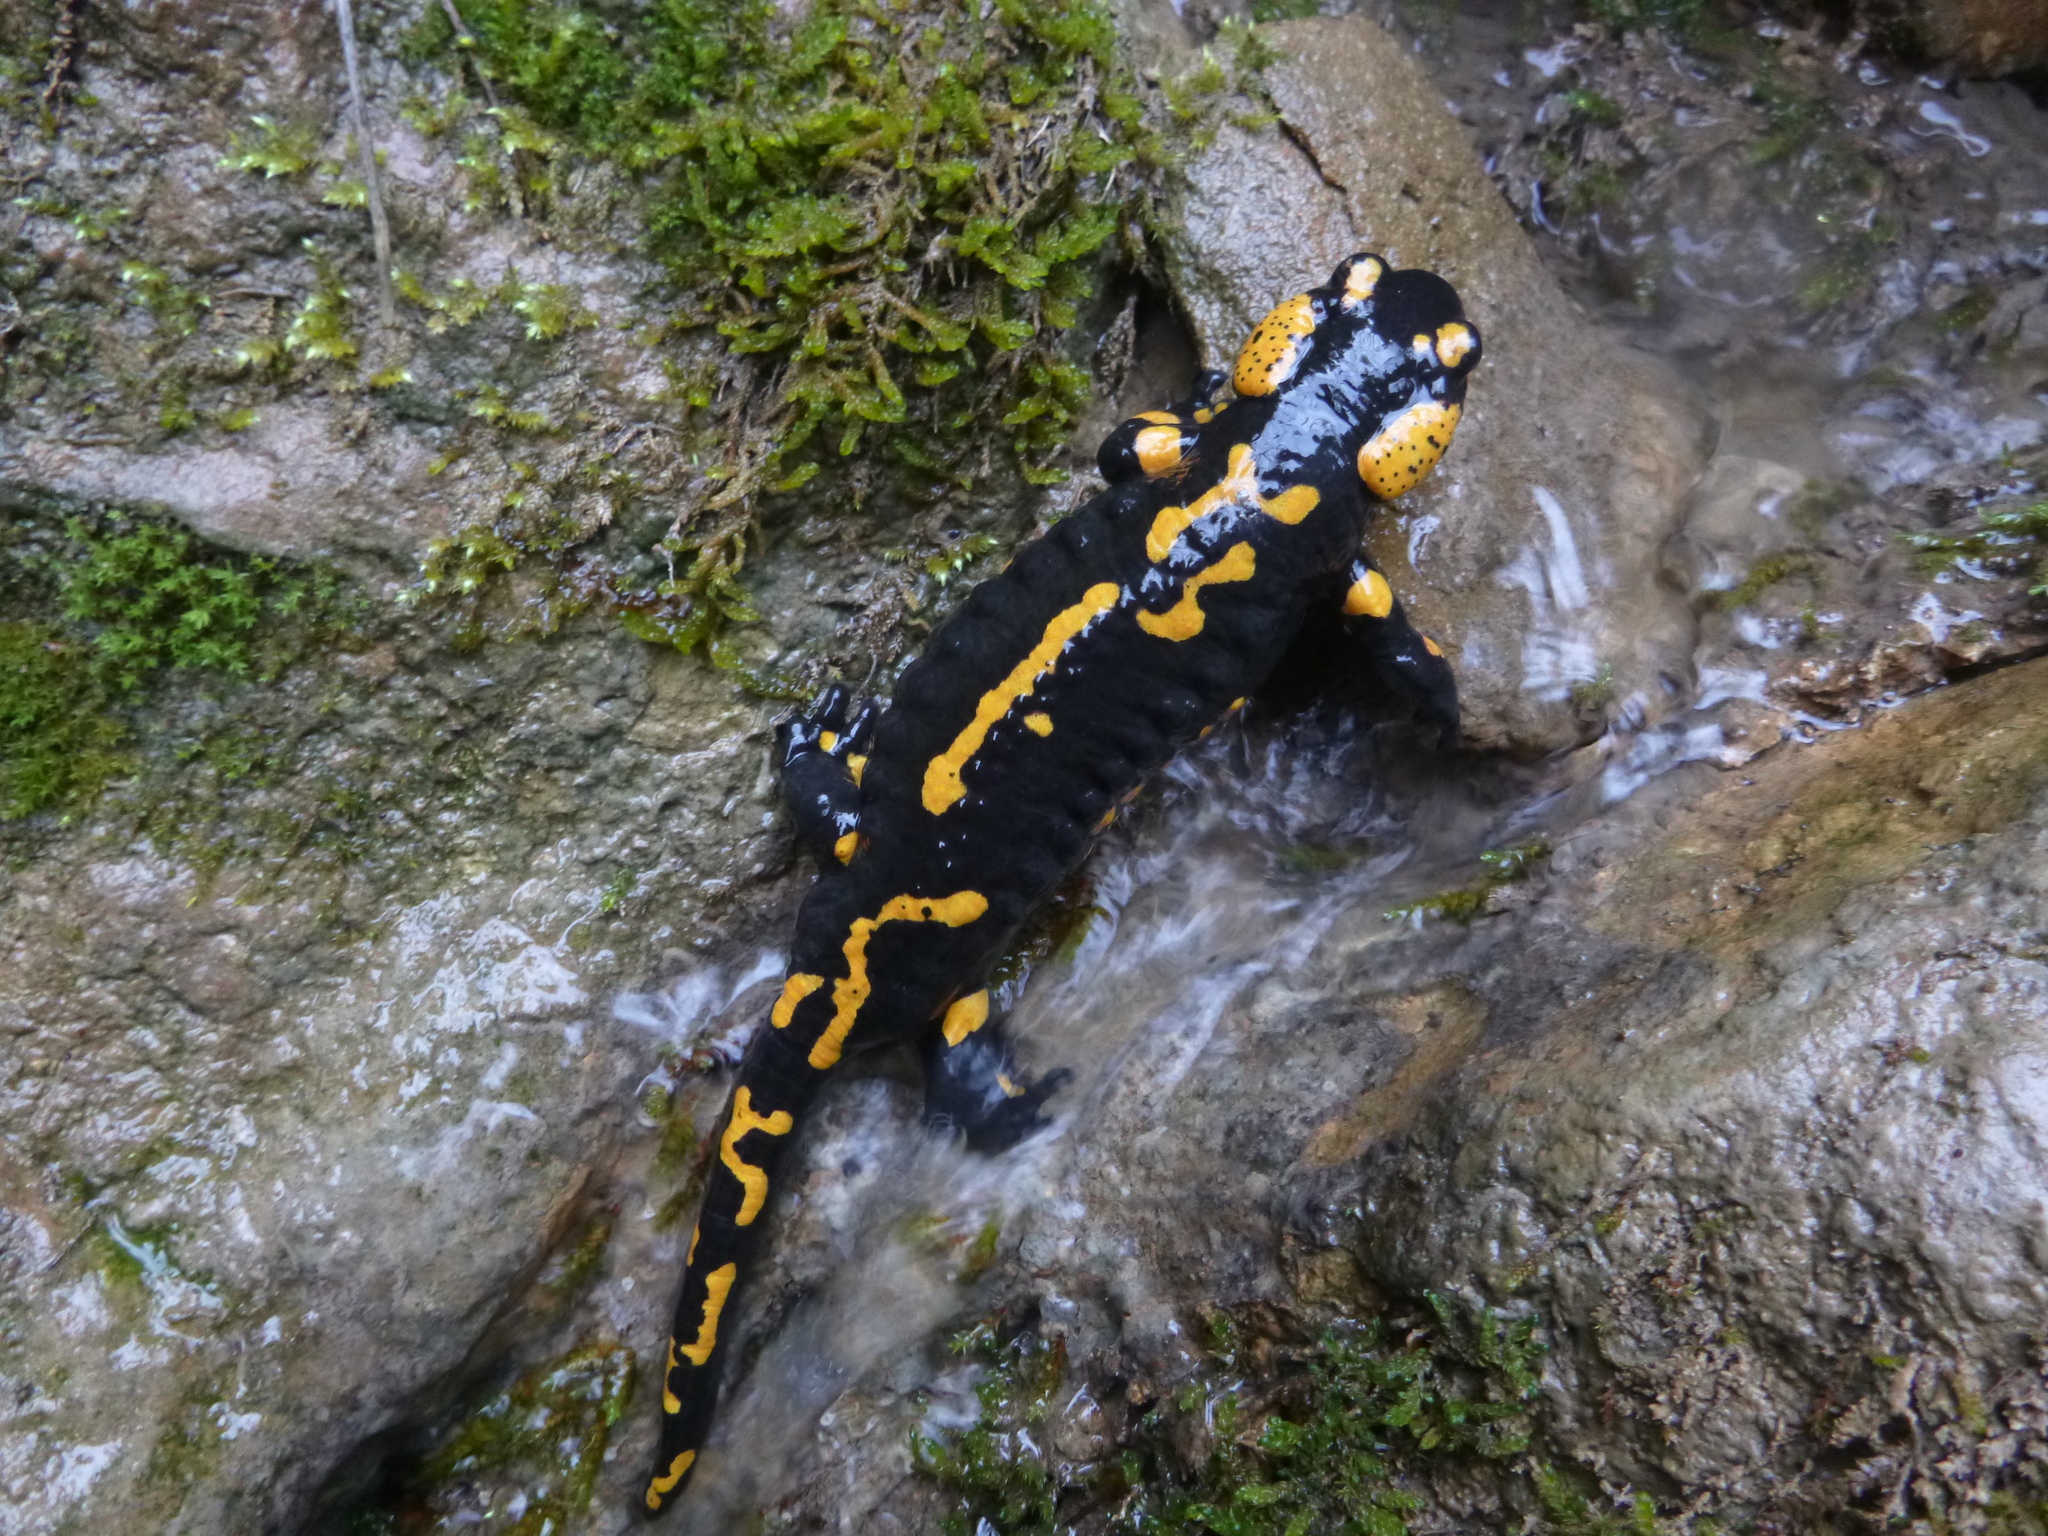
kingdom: Animalia
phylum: Chordata
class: Amphibia
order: Caudata
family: Salamandridae
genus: Salamandra
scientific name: Salamandra salamandra
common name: Fire salamander
